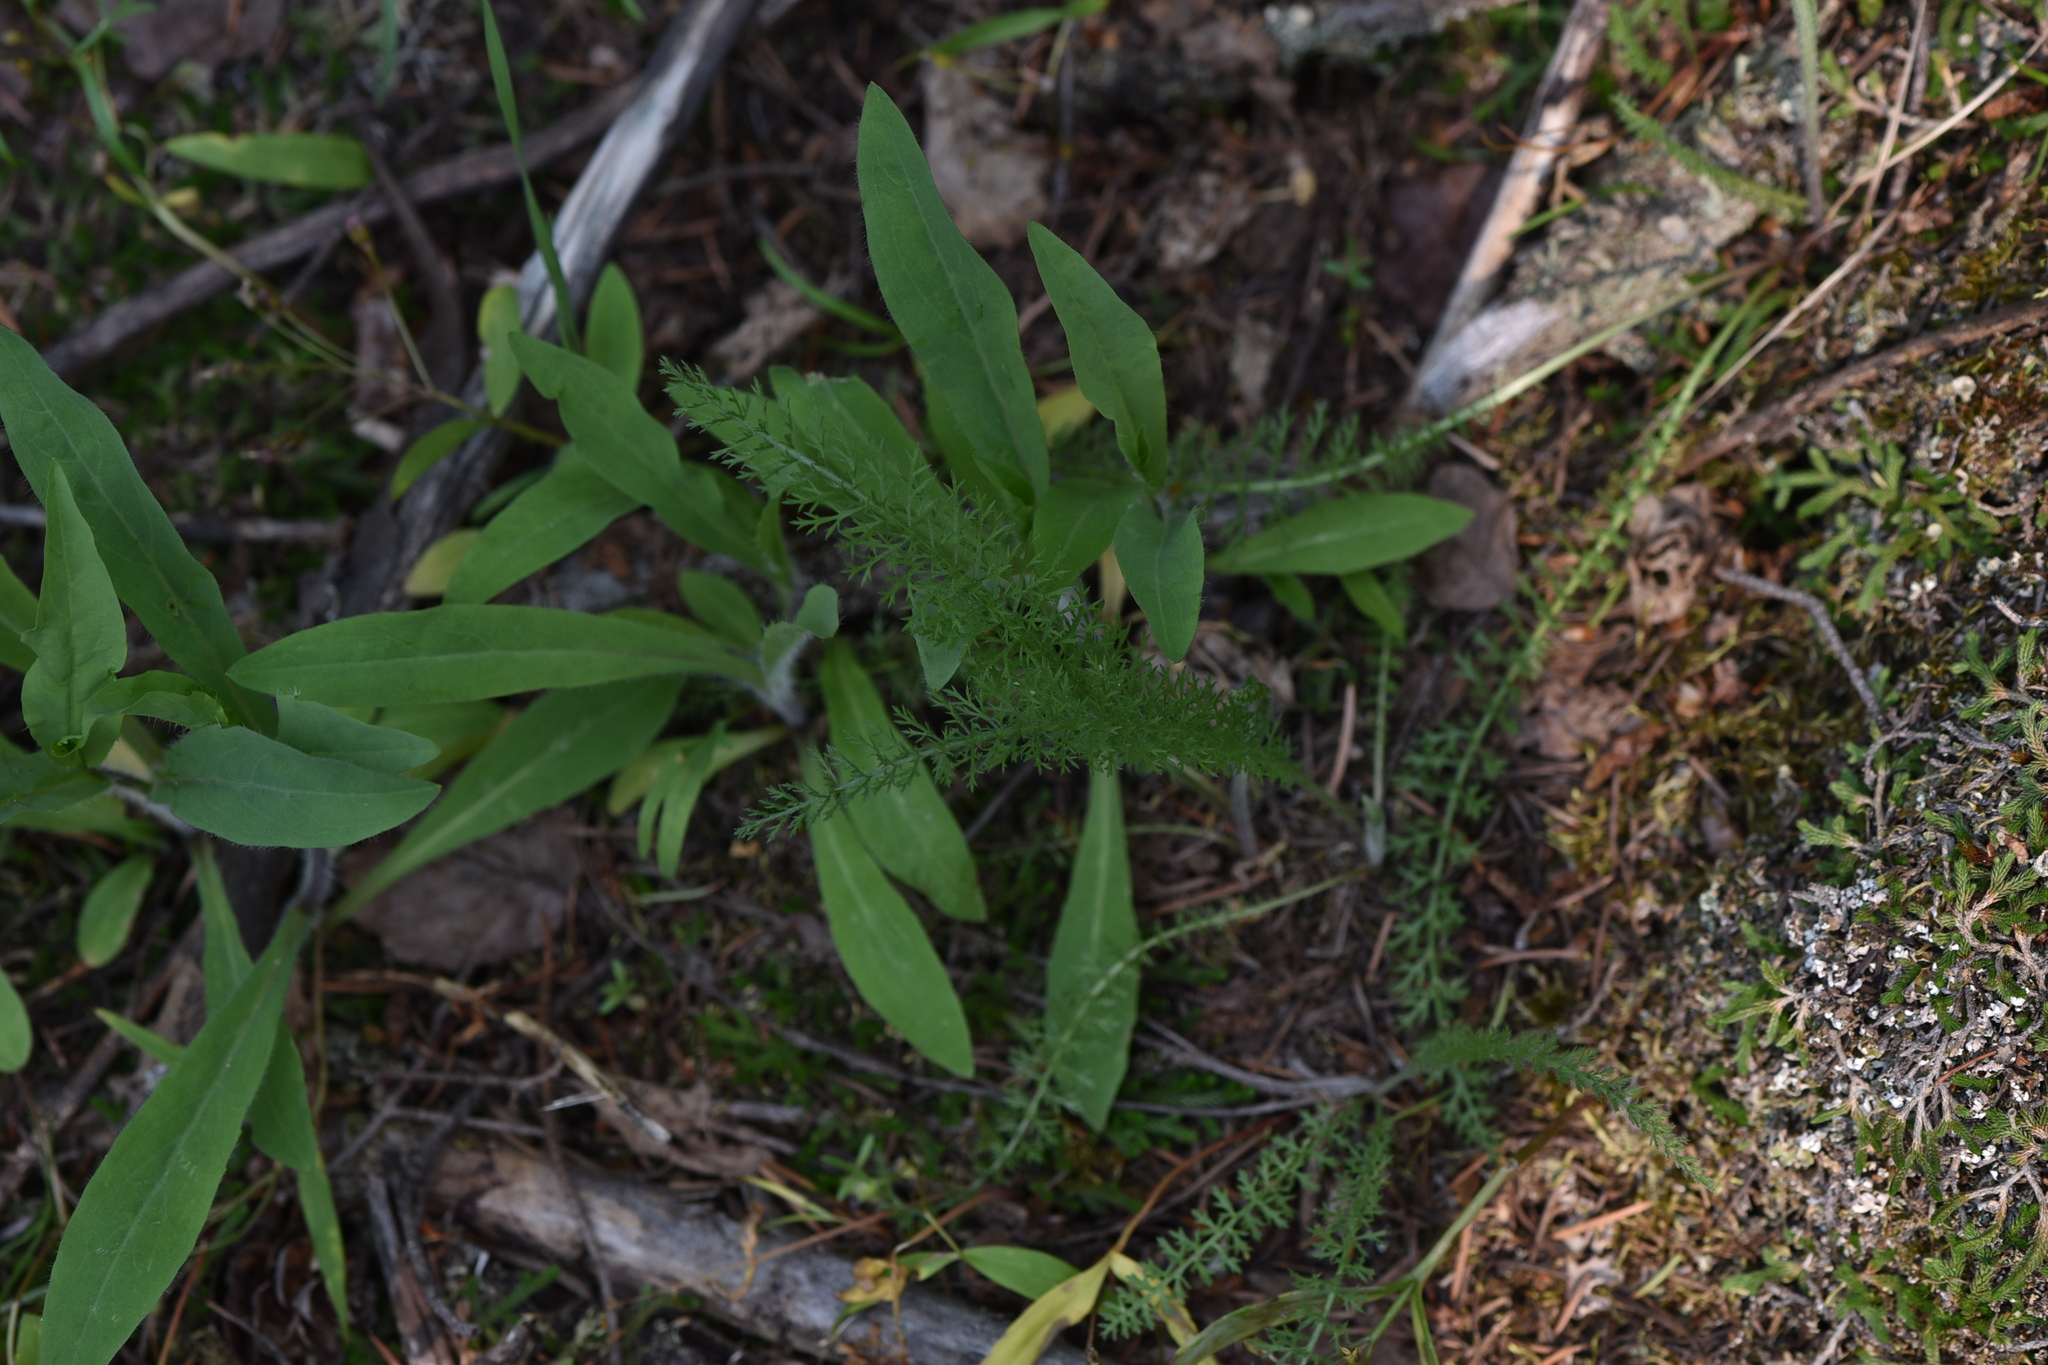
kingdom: Plantae
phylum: Tracheophyta
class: Magnoliopsida
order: Asterales
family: Asteraceae
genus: Achillea
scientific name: Achillea millefolium
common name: Yarrow
